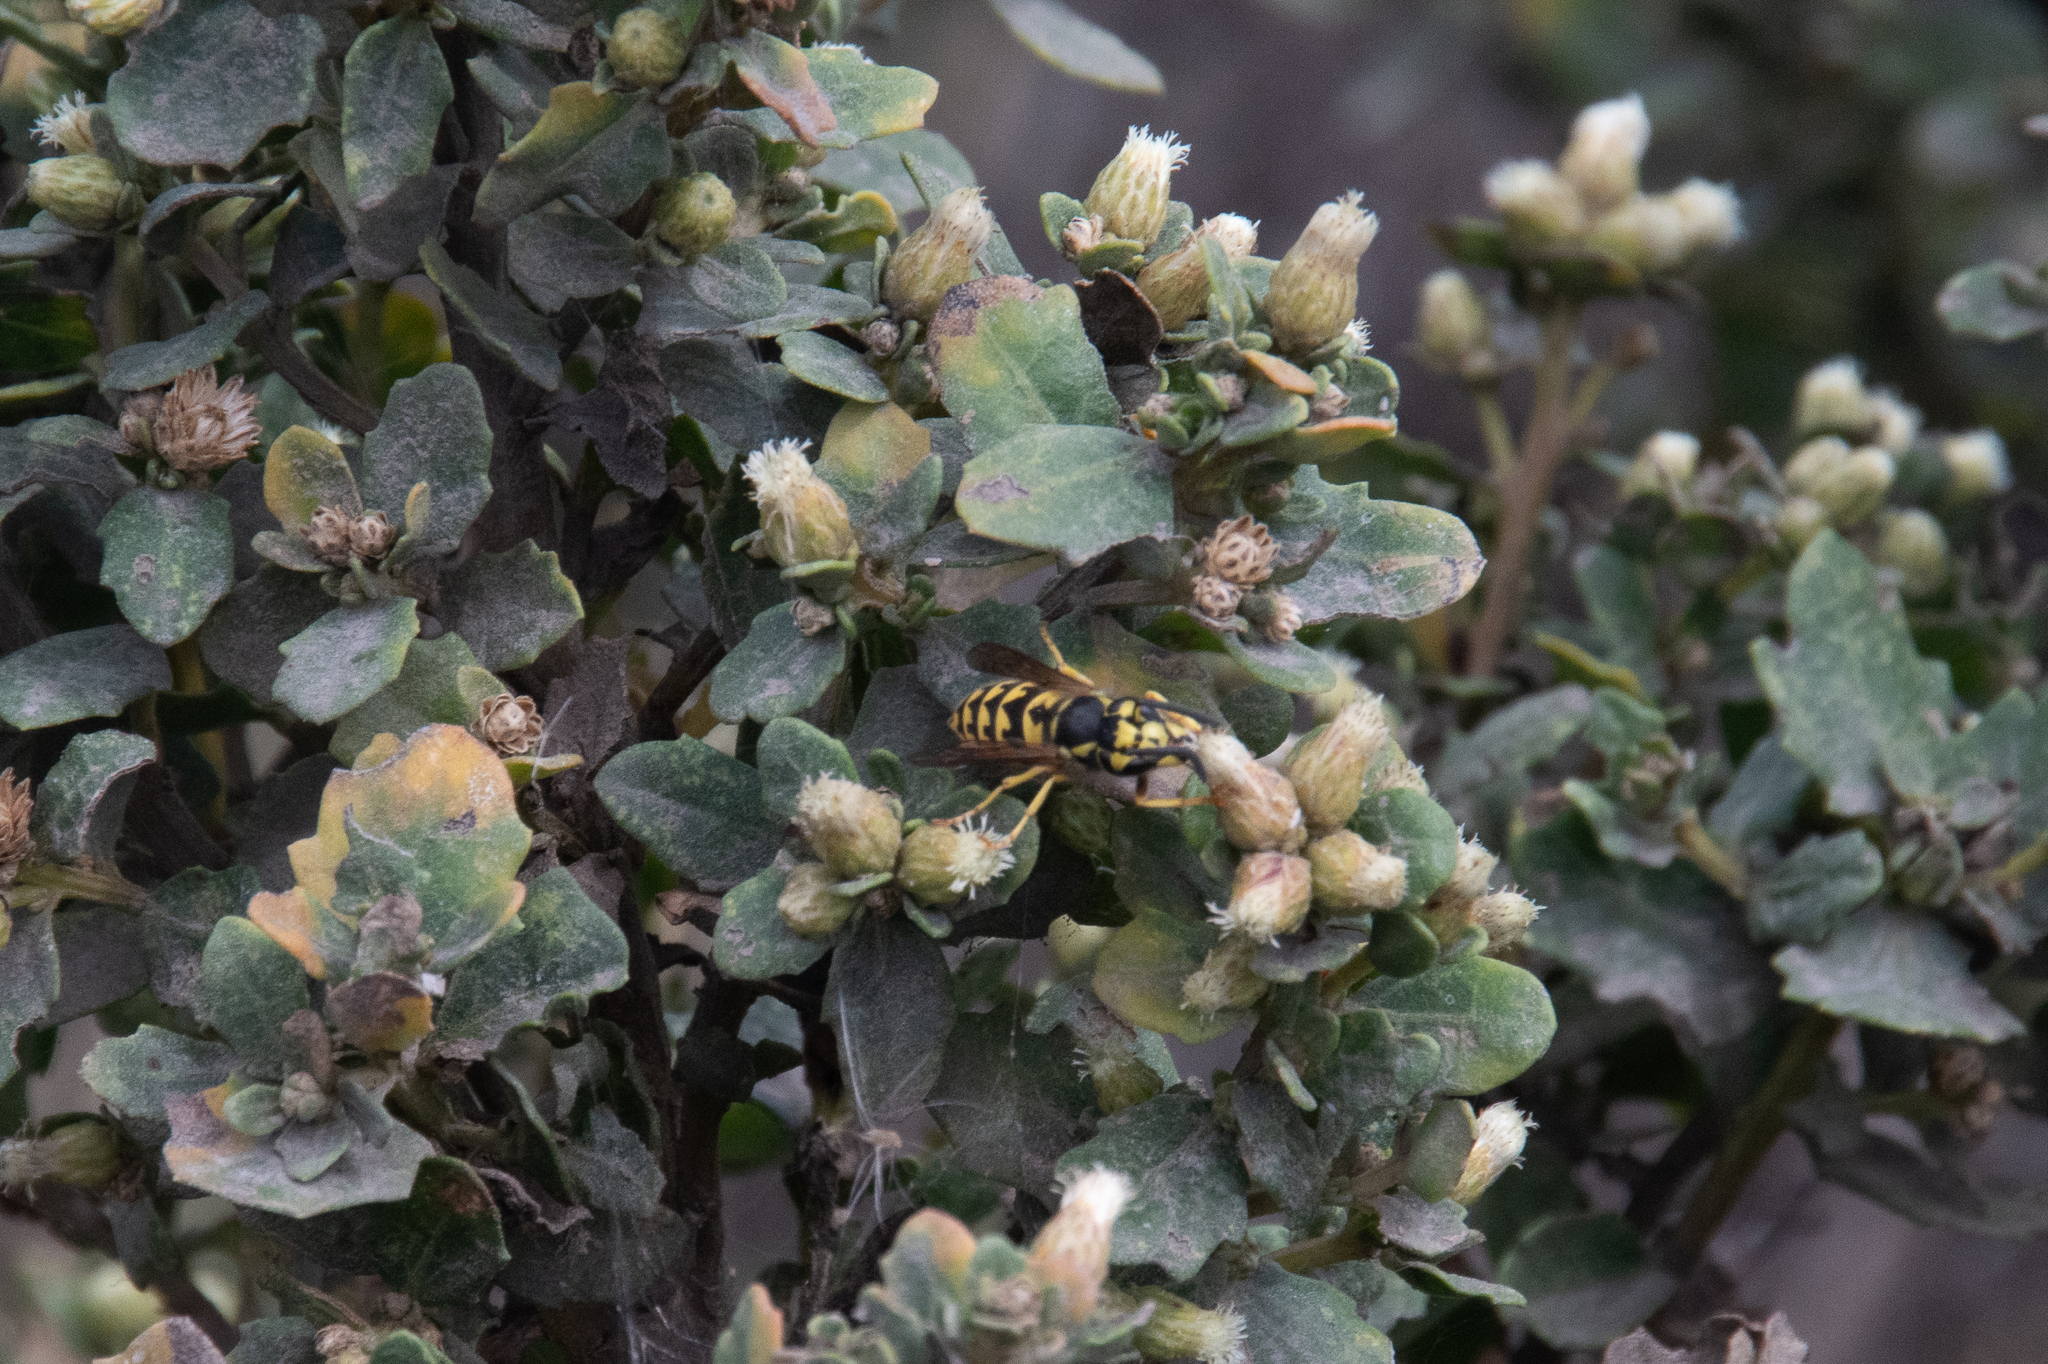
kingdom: Animalia
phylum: Arthropoda
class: Insecta
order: Hymenoptera
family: Vespidae
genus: Vespula
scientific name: Vespula pensylvanica
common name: Western yellowjacket
